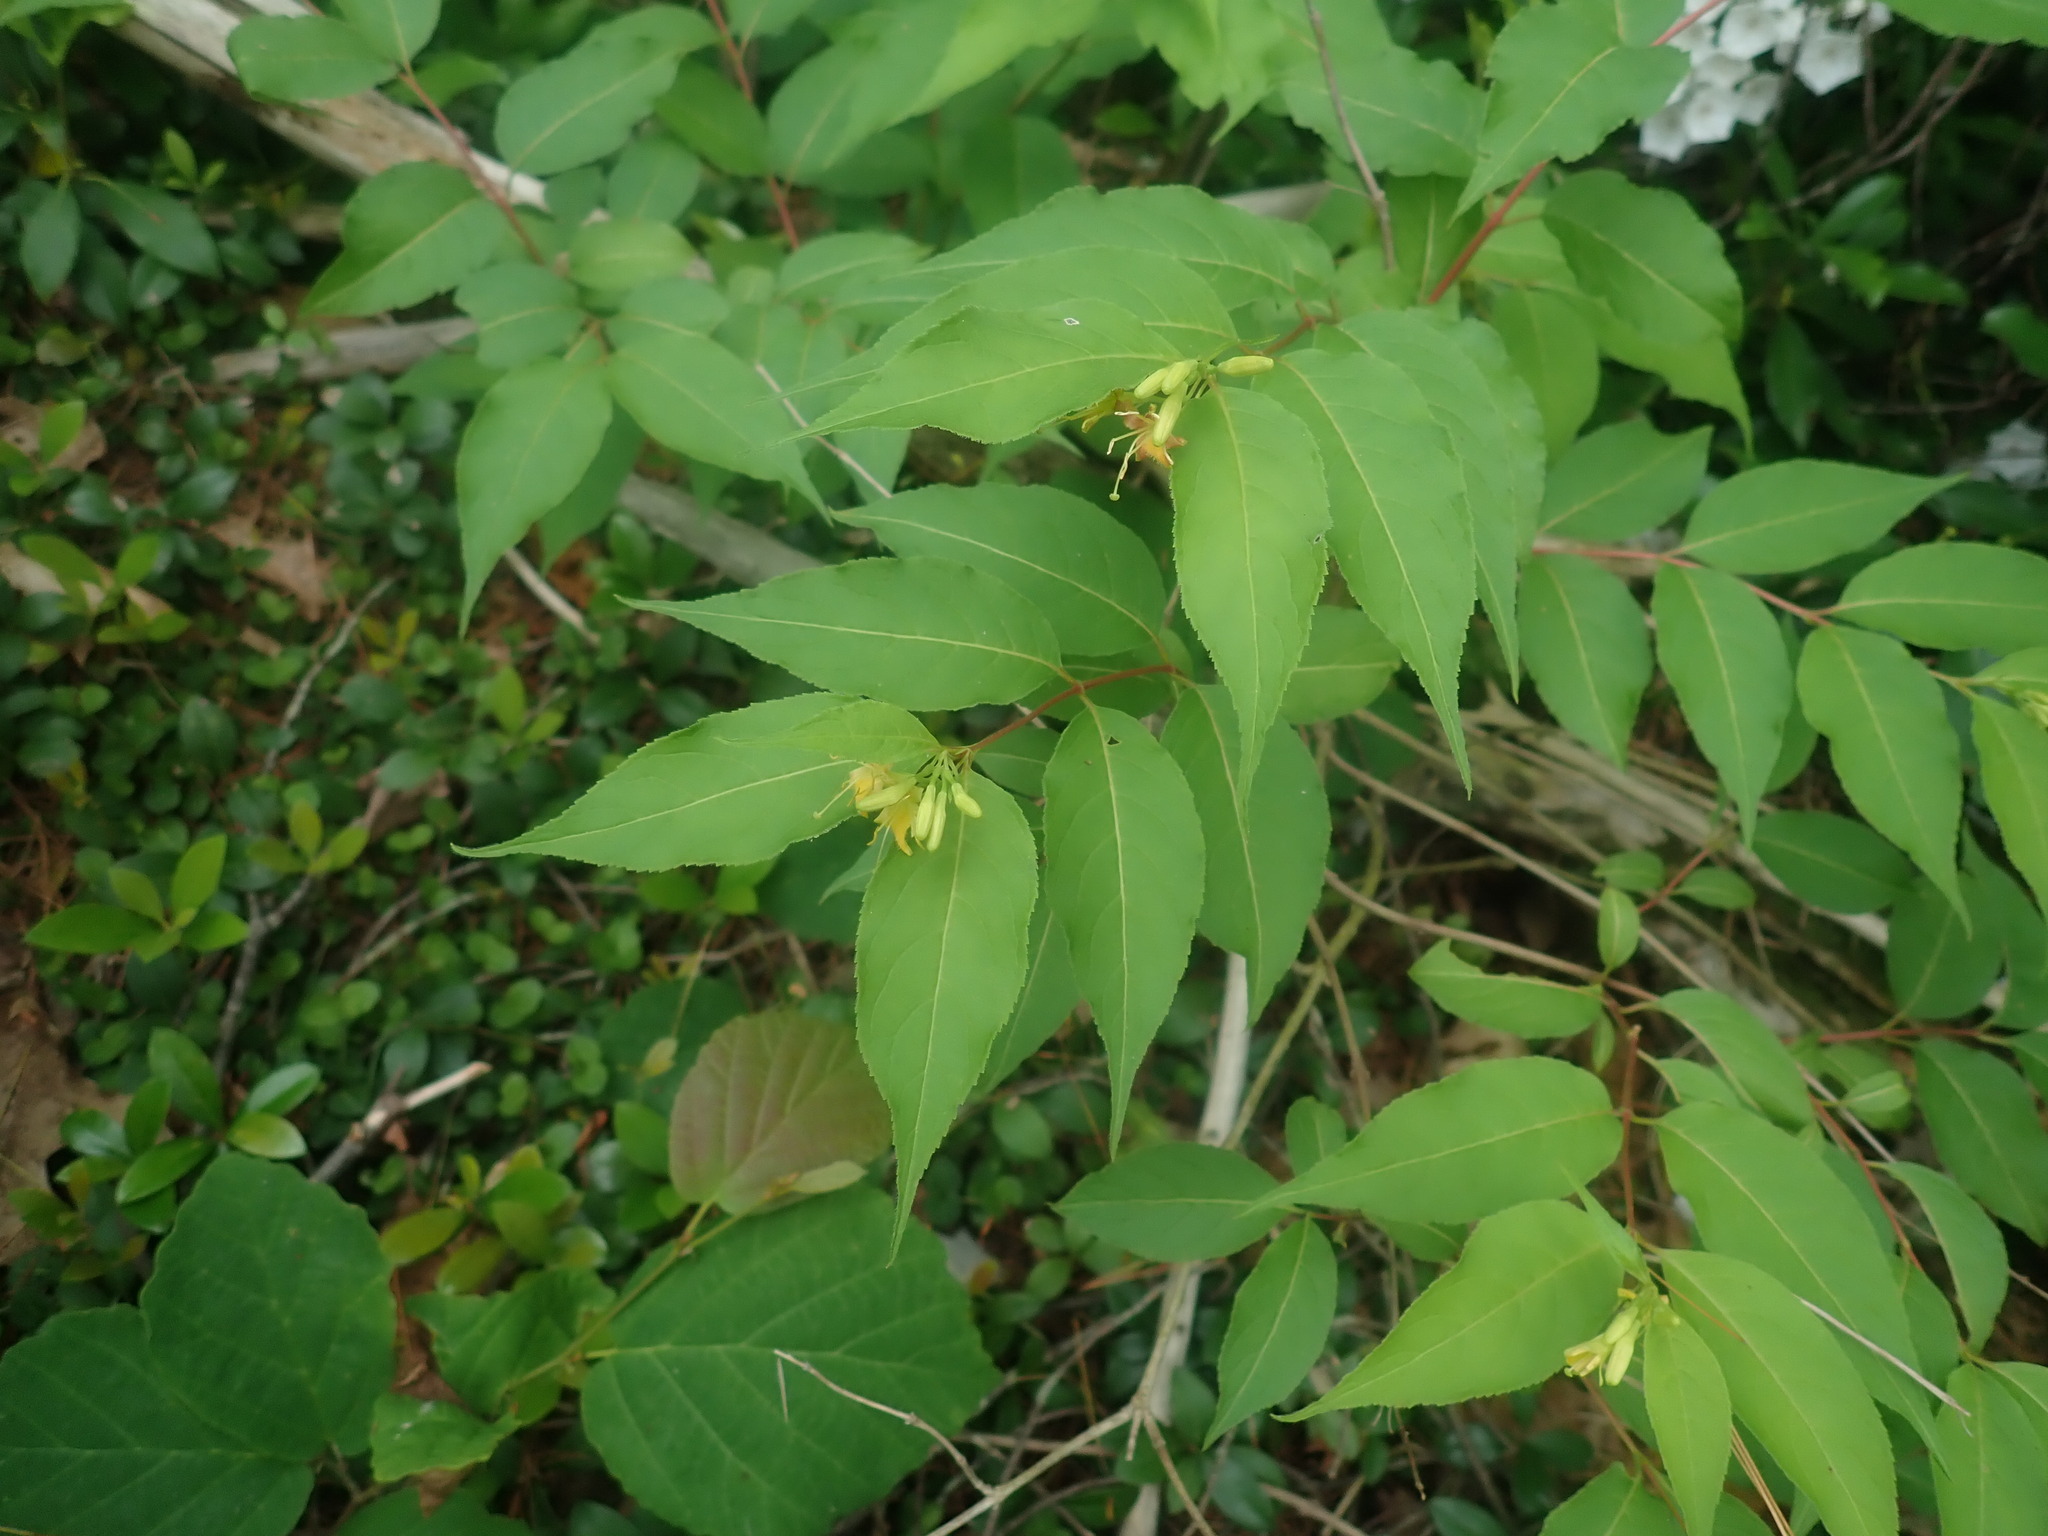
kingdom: Plantae
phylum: Tracheophyta
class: Magnoliopsida
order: Dipsacales
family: Caprifoliaceae
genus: Diervilla
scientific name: Diervilla lonicera
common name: Bush-honeysuckle
